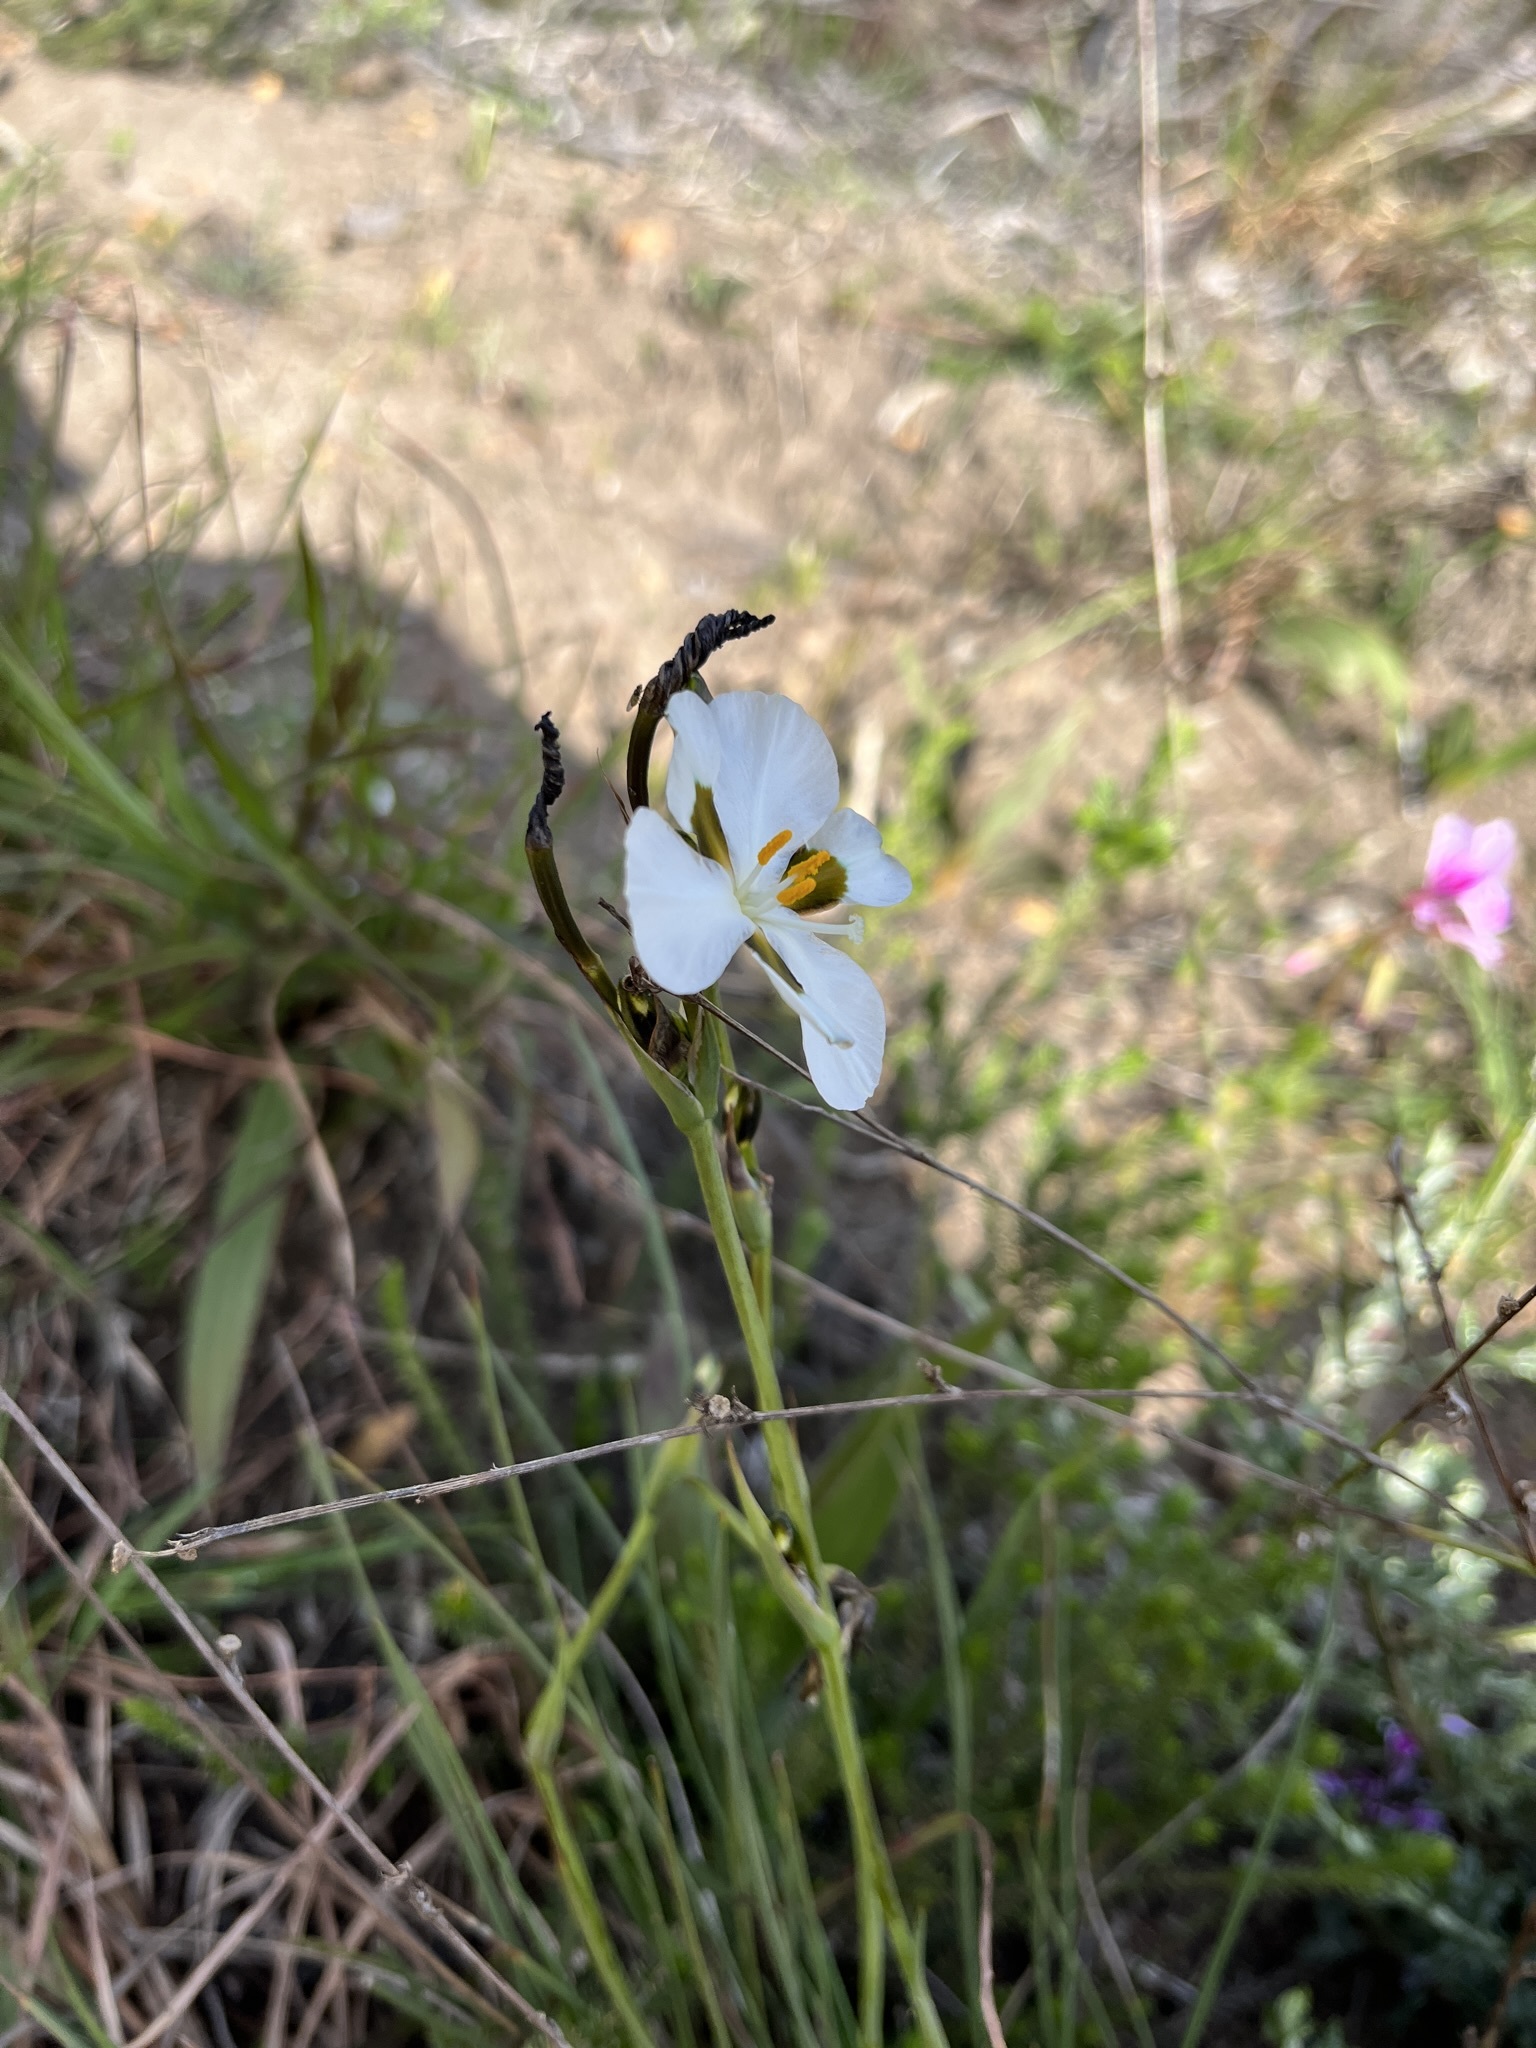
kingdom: Plantae
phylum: Tracheophyta
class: Liliopsida
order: Asparagales
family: Iridaceae
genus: Aristea
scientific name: Aristea teretifolia
